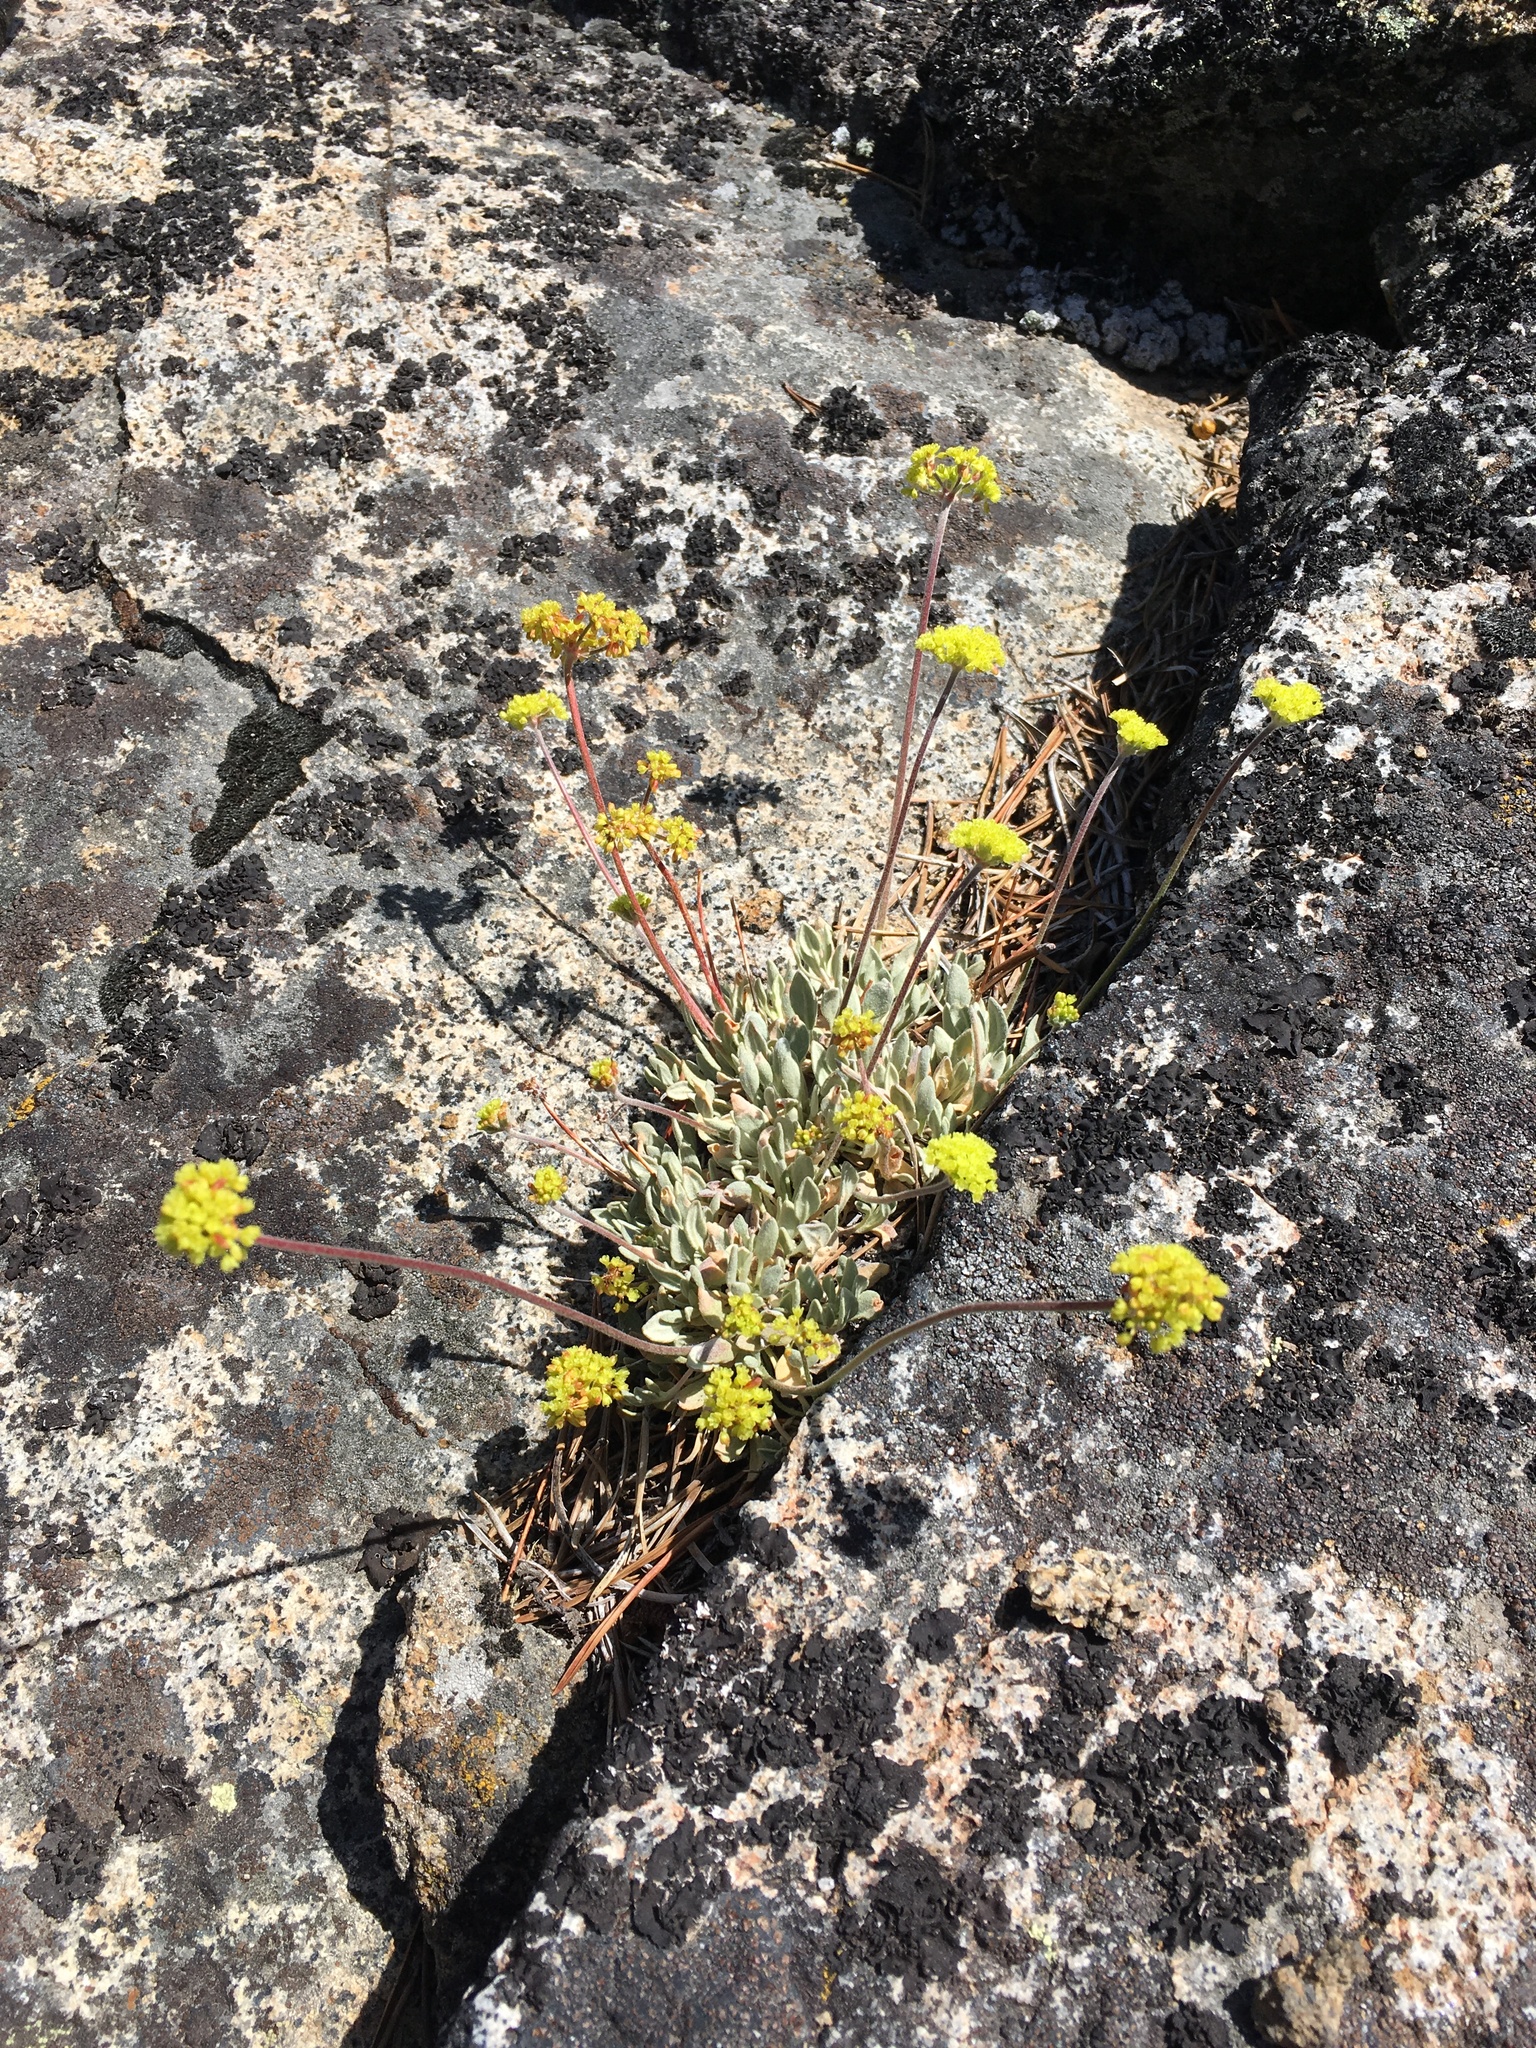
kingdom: Plantae
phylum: Tracheophyta
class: Magnoliopsida
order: Caryophyllales
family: Polygonaceae
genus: Eriogonum
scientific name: Eriogonum incanum
